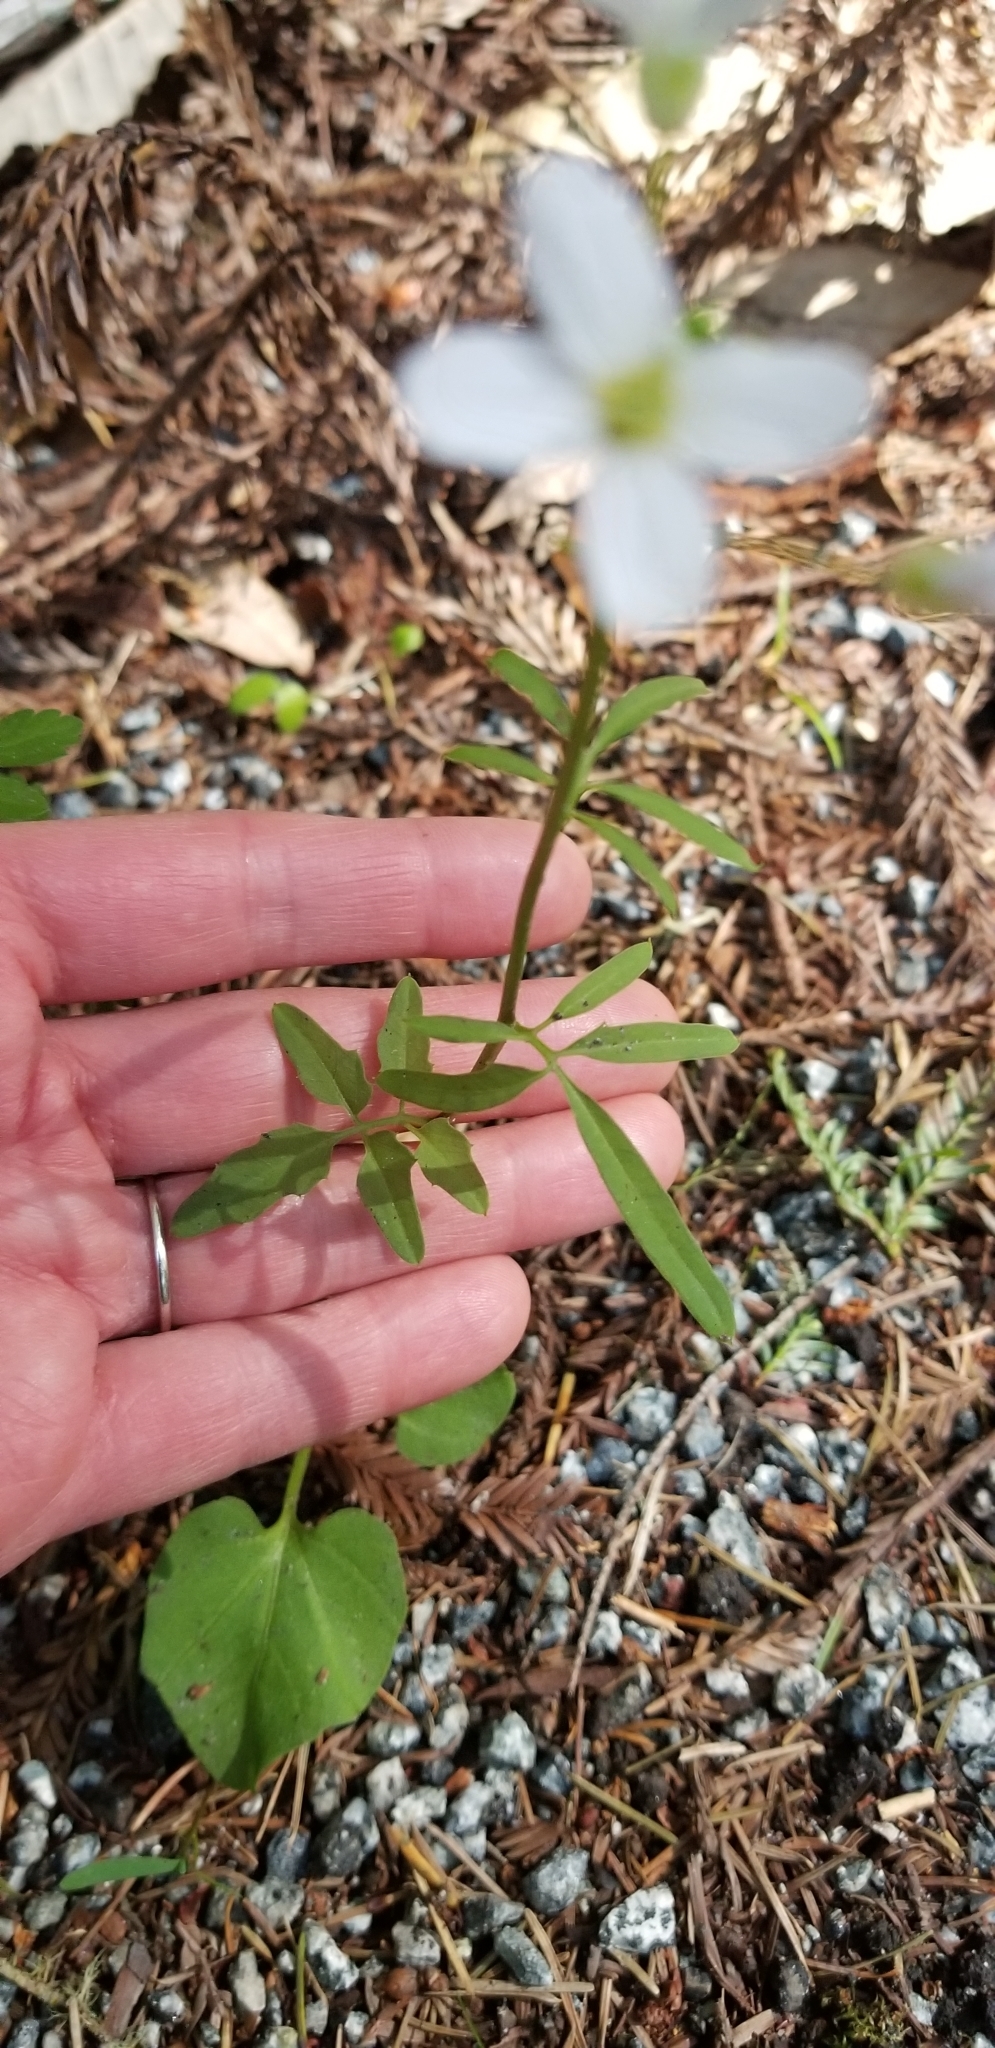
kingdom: Plantae
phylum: Tracheophyta
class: Magnoliopsida
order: Brassicales
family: Brassicaceae
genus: Cardamine
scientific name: Cardamine californica
